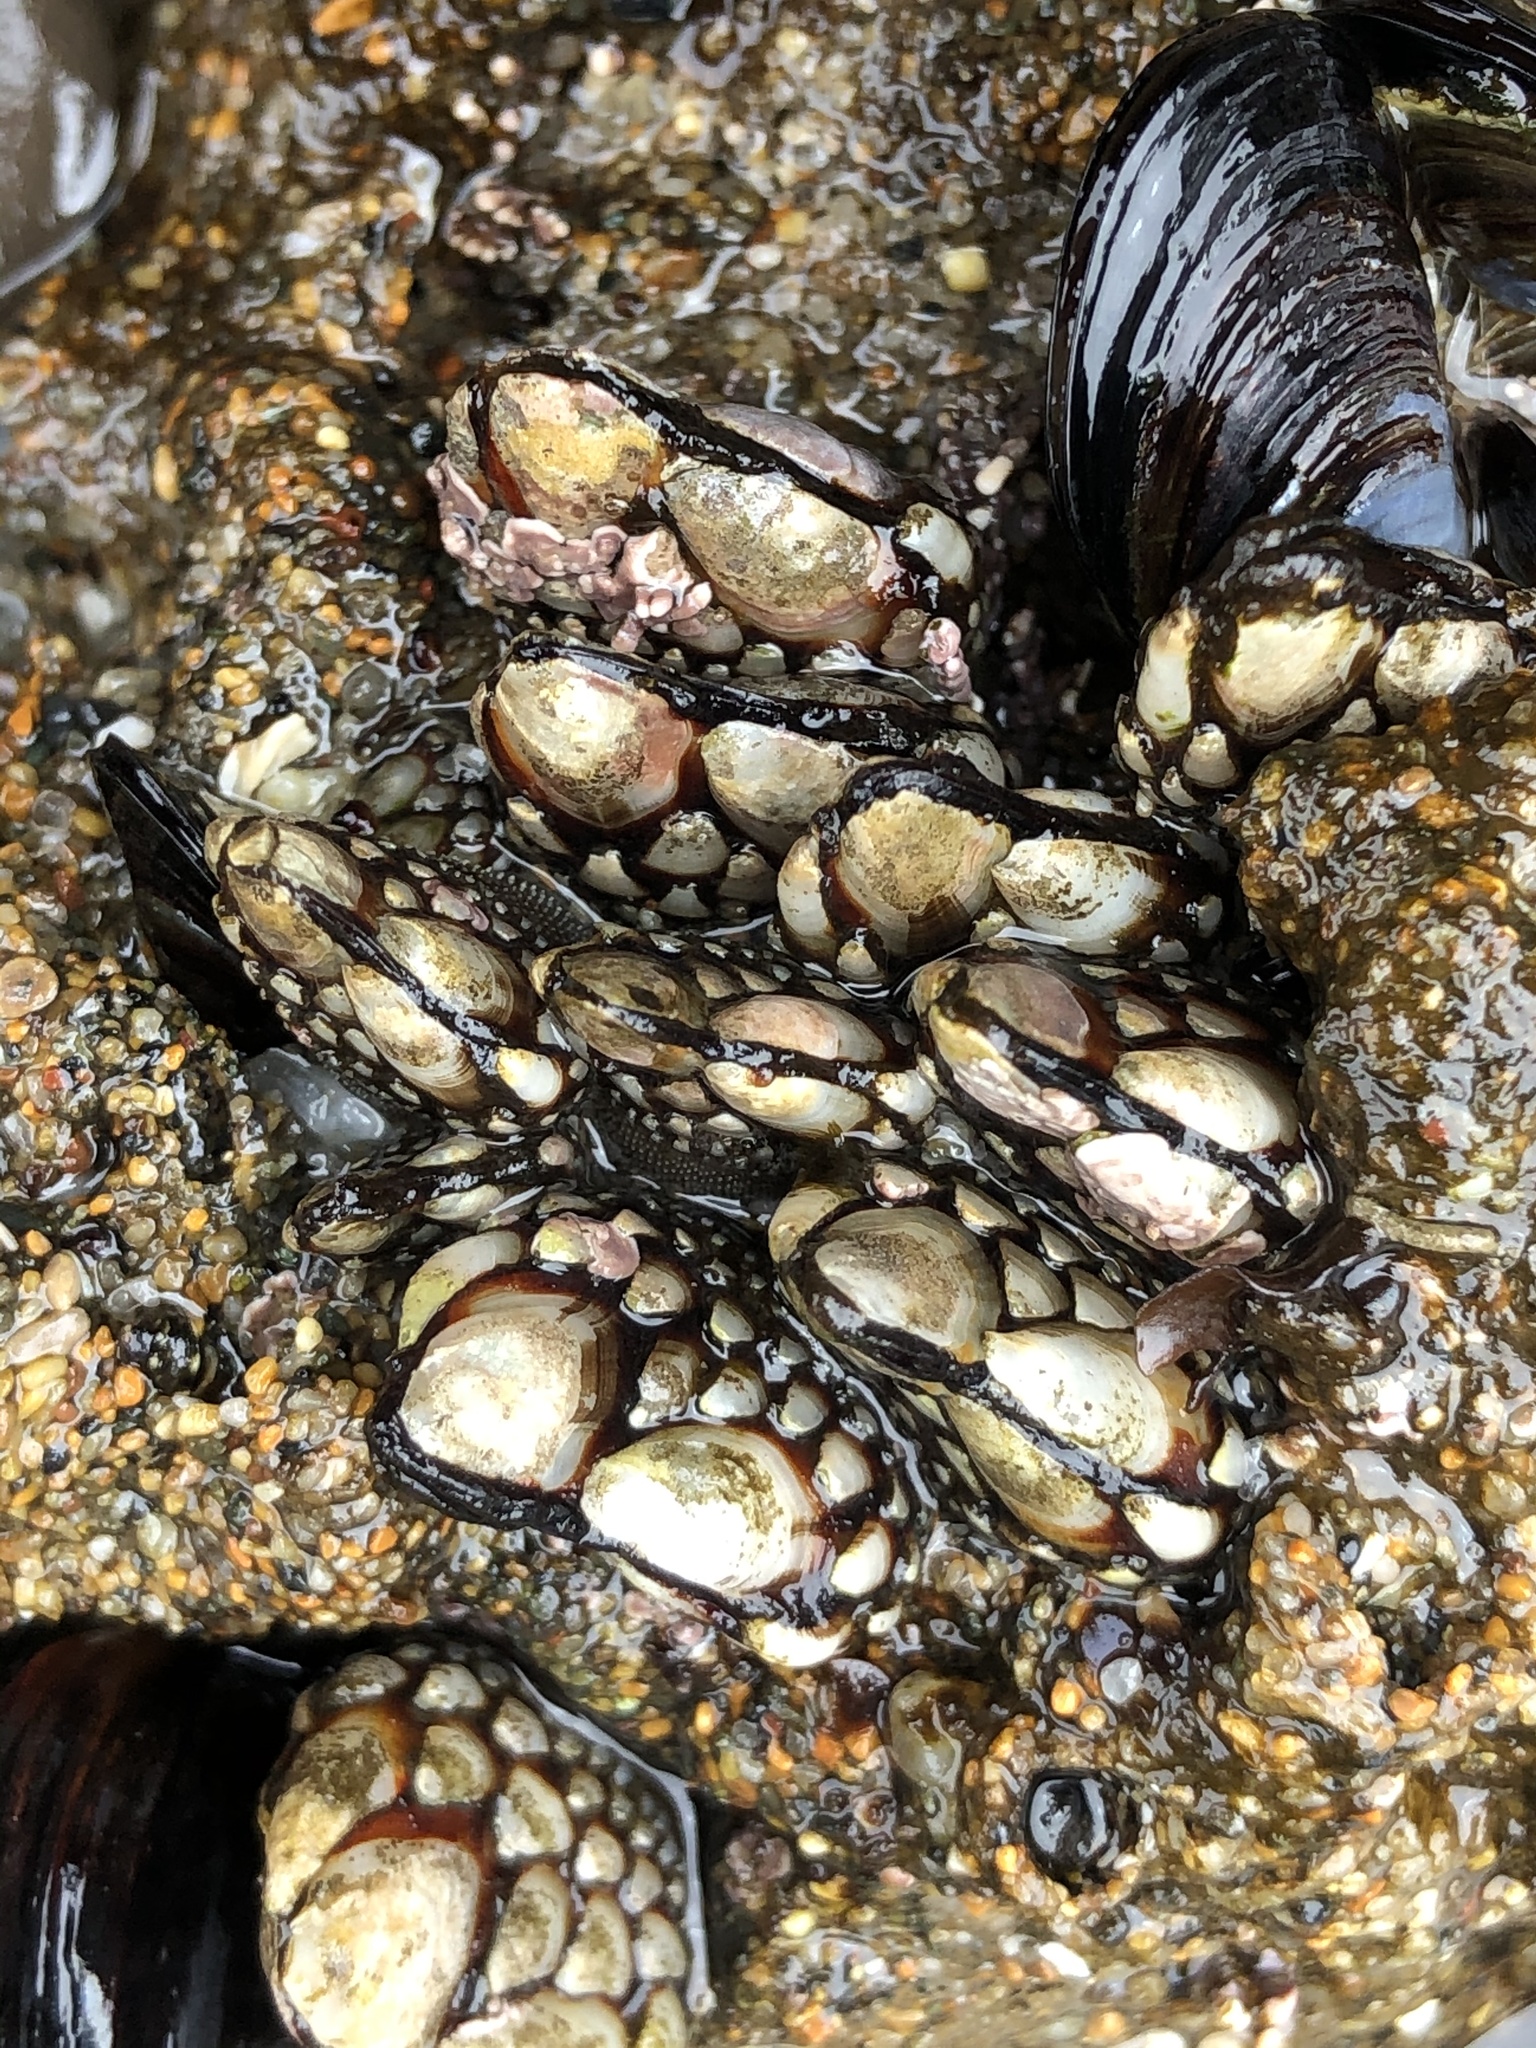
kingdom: Animalia
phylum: Arthropoda
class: Maxillopoda
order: Pedunculata
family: Pollicipedidae
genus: Pollicipes
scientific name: Pollicipes polymerus
